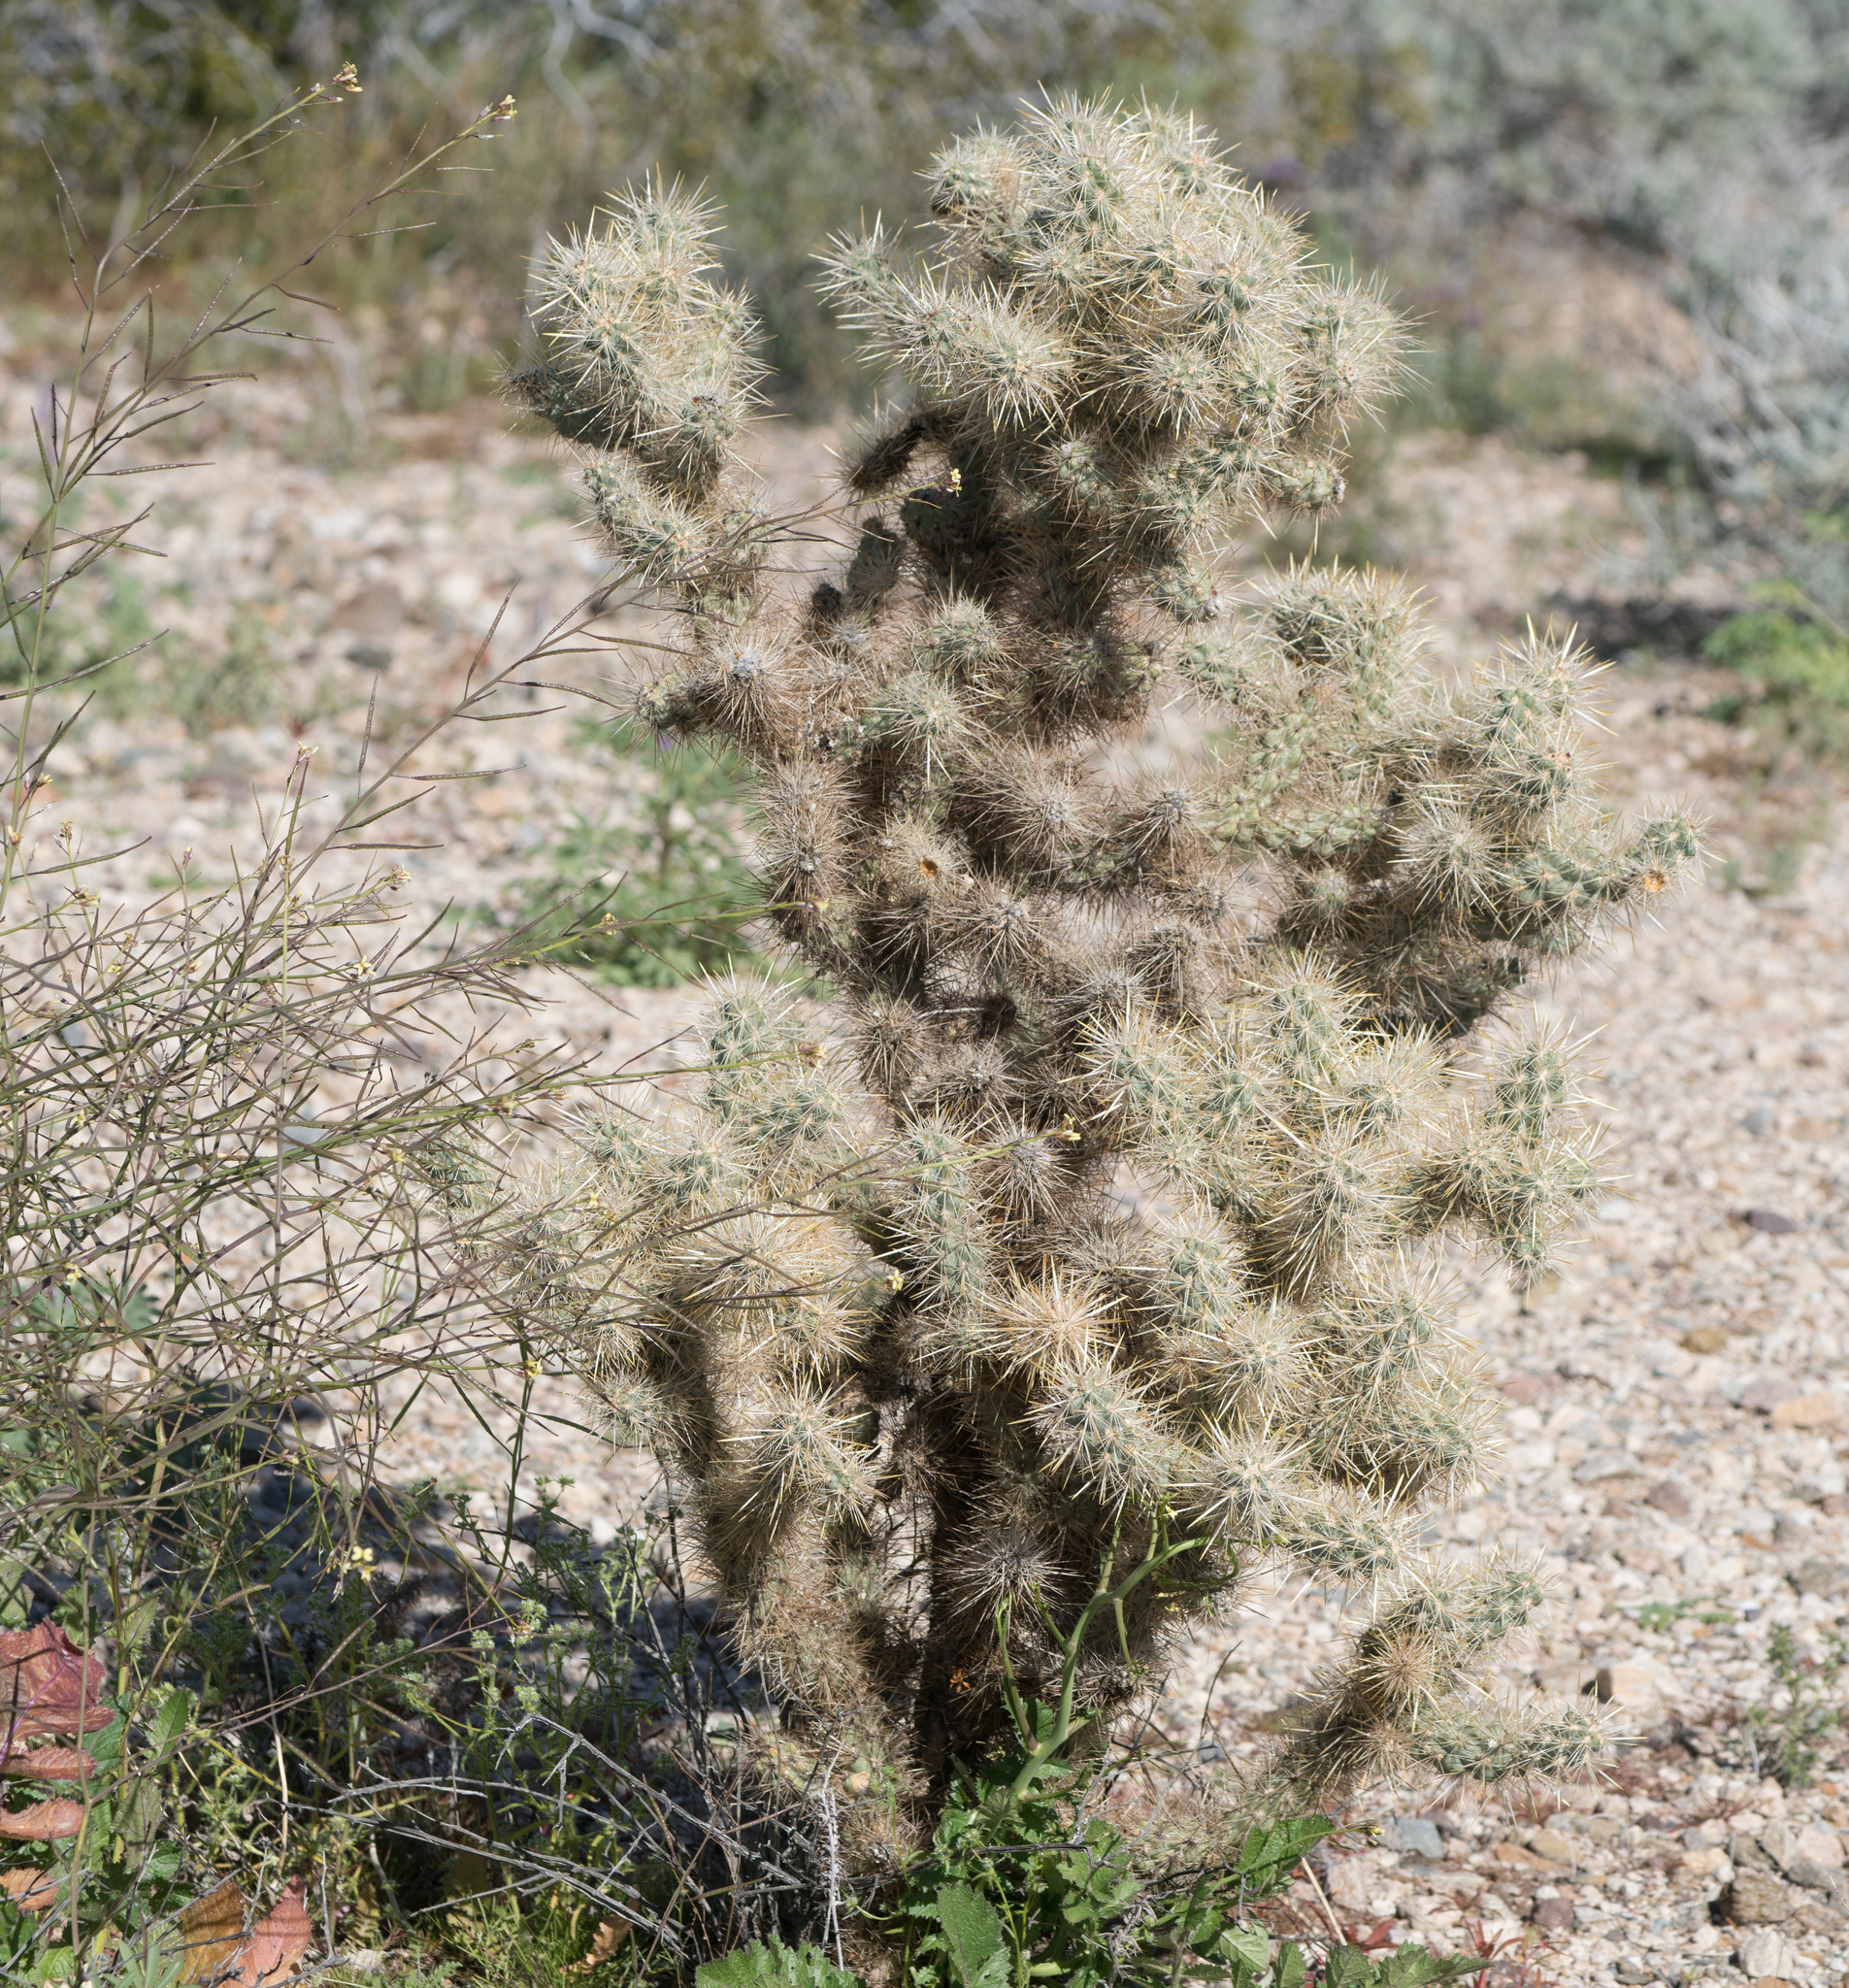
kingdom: Plantae
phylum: Tracheophyta
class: Magnoliopsida
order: Caryophyllales
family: Cactaceae
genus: Cylindropuntia
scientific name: Cylindropuntia echinocarpa
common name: Ground cholla
